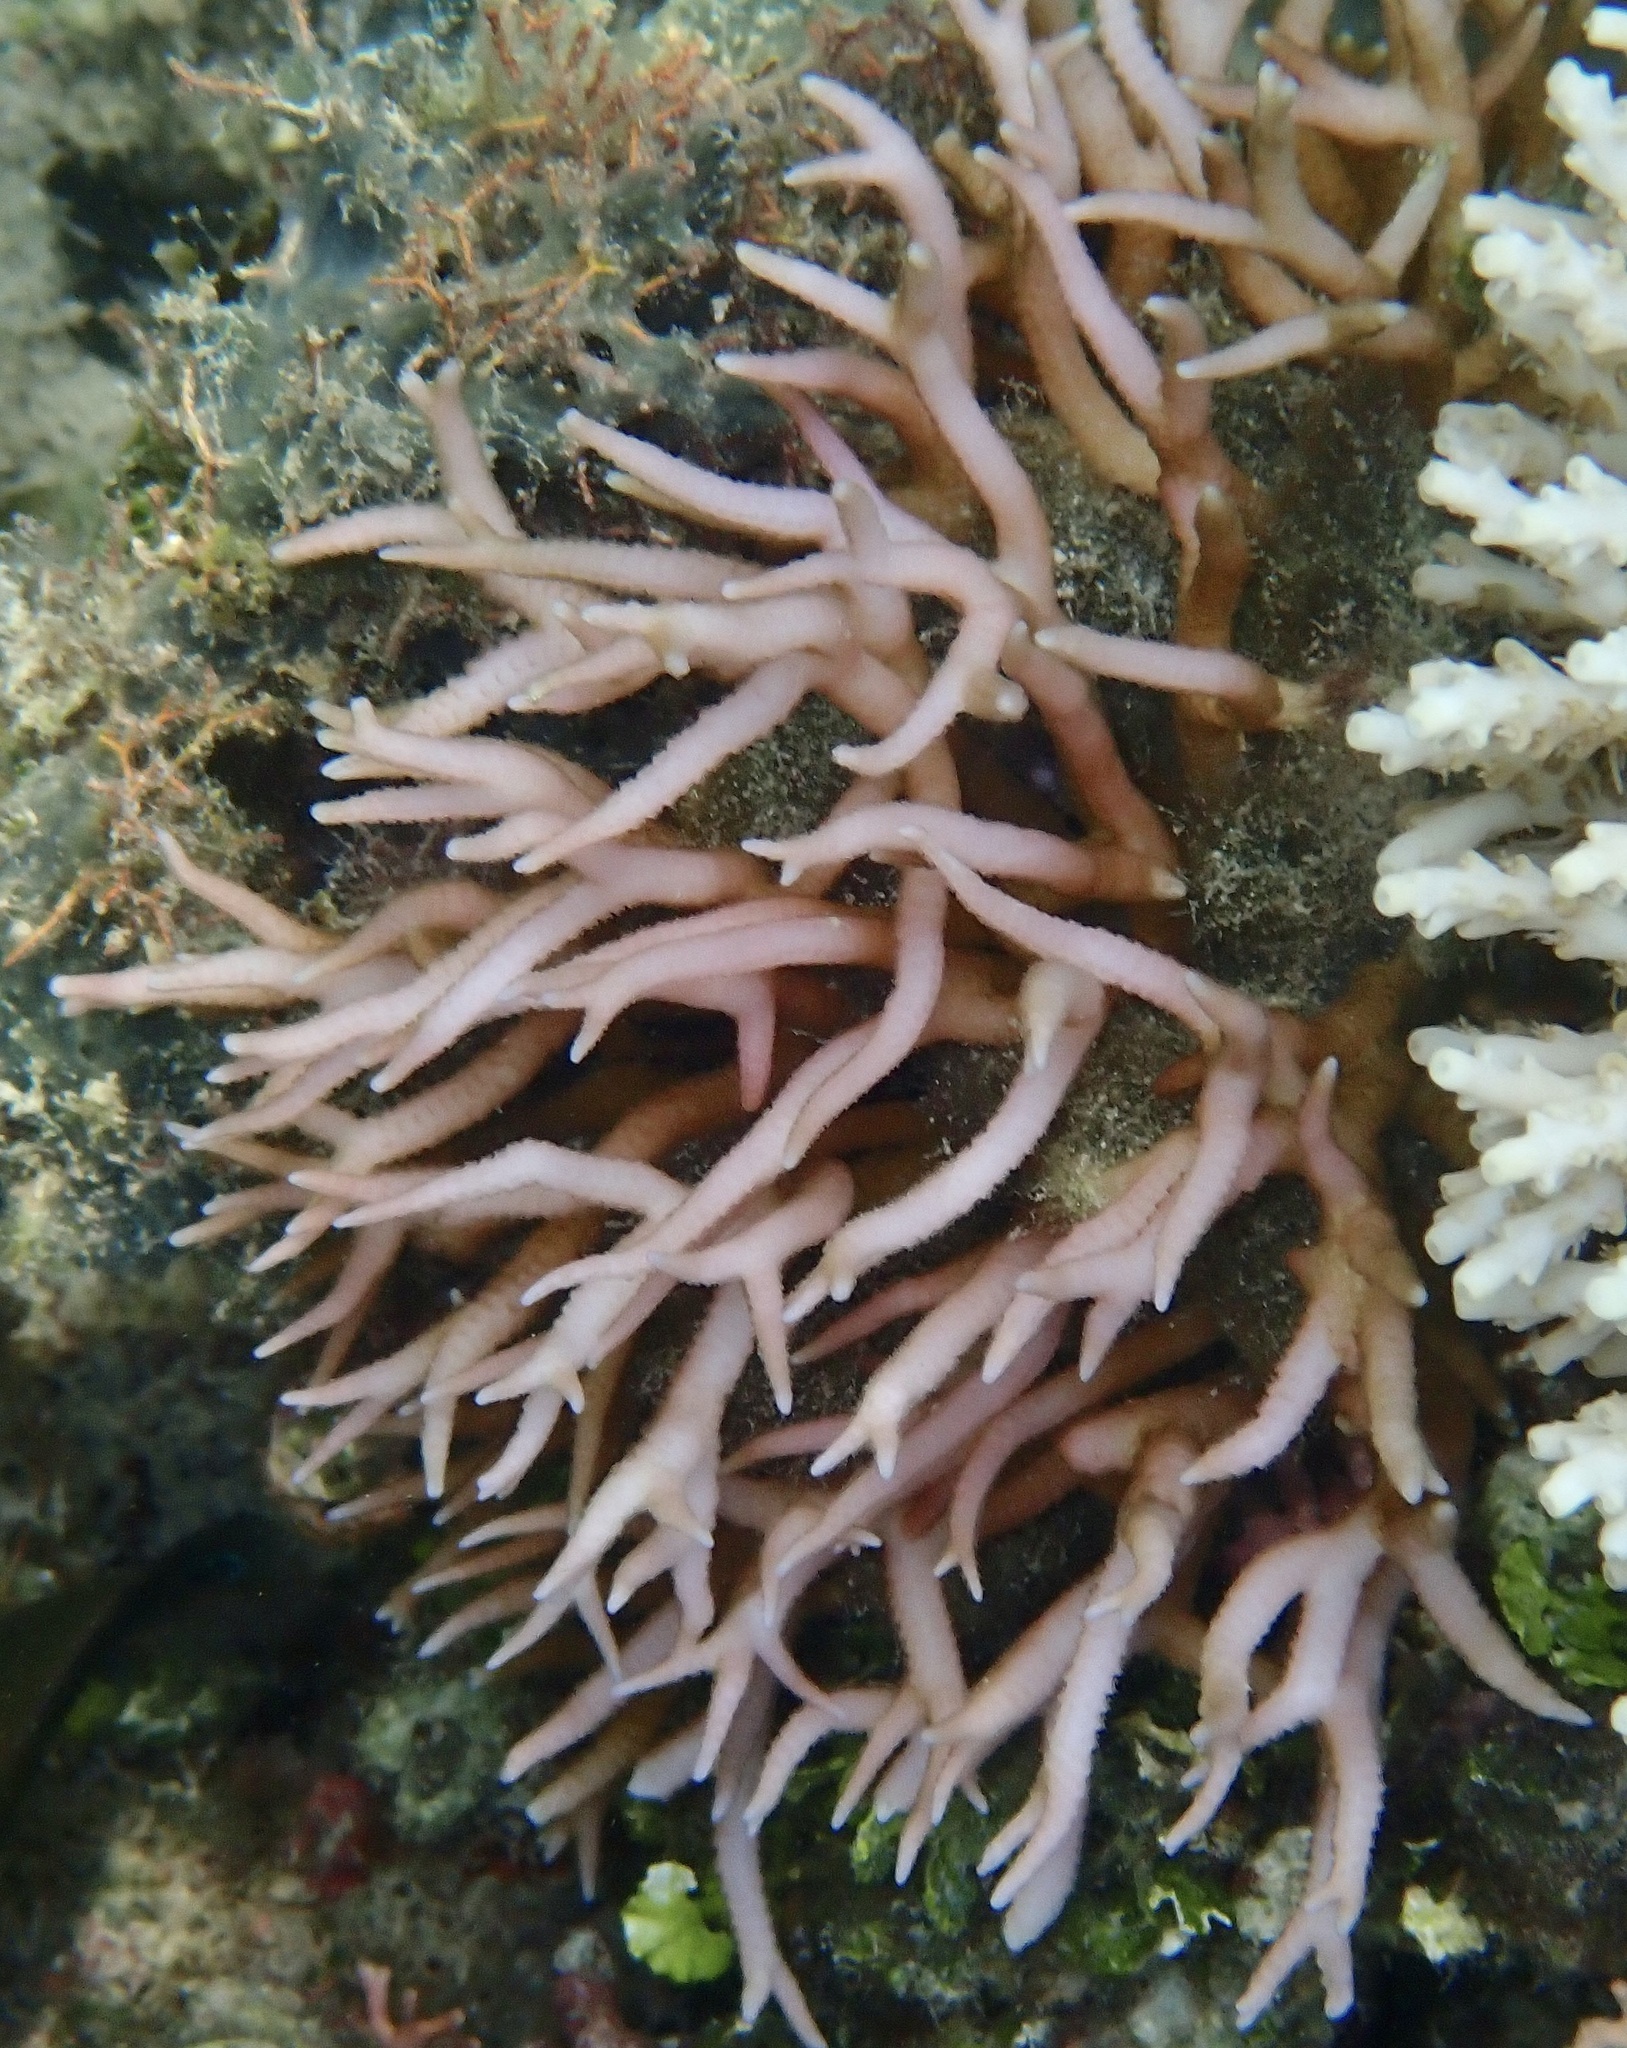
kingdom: Animalia
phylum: Cnidaria
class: Anthozoa
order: Scleractinia
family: Pocilloporidae
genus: Seriatopora
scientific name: Seriatopora hystrix
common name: Bush coral
